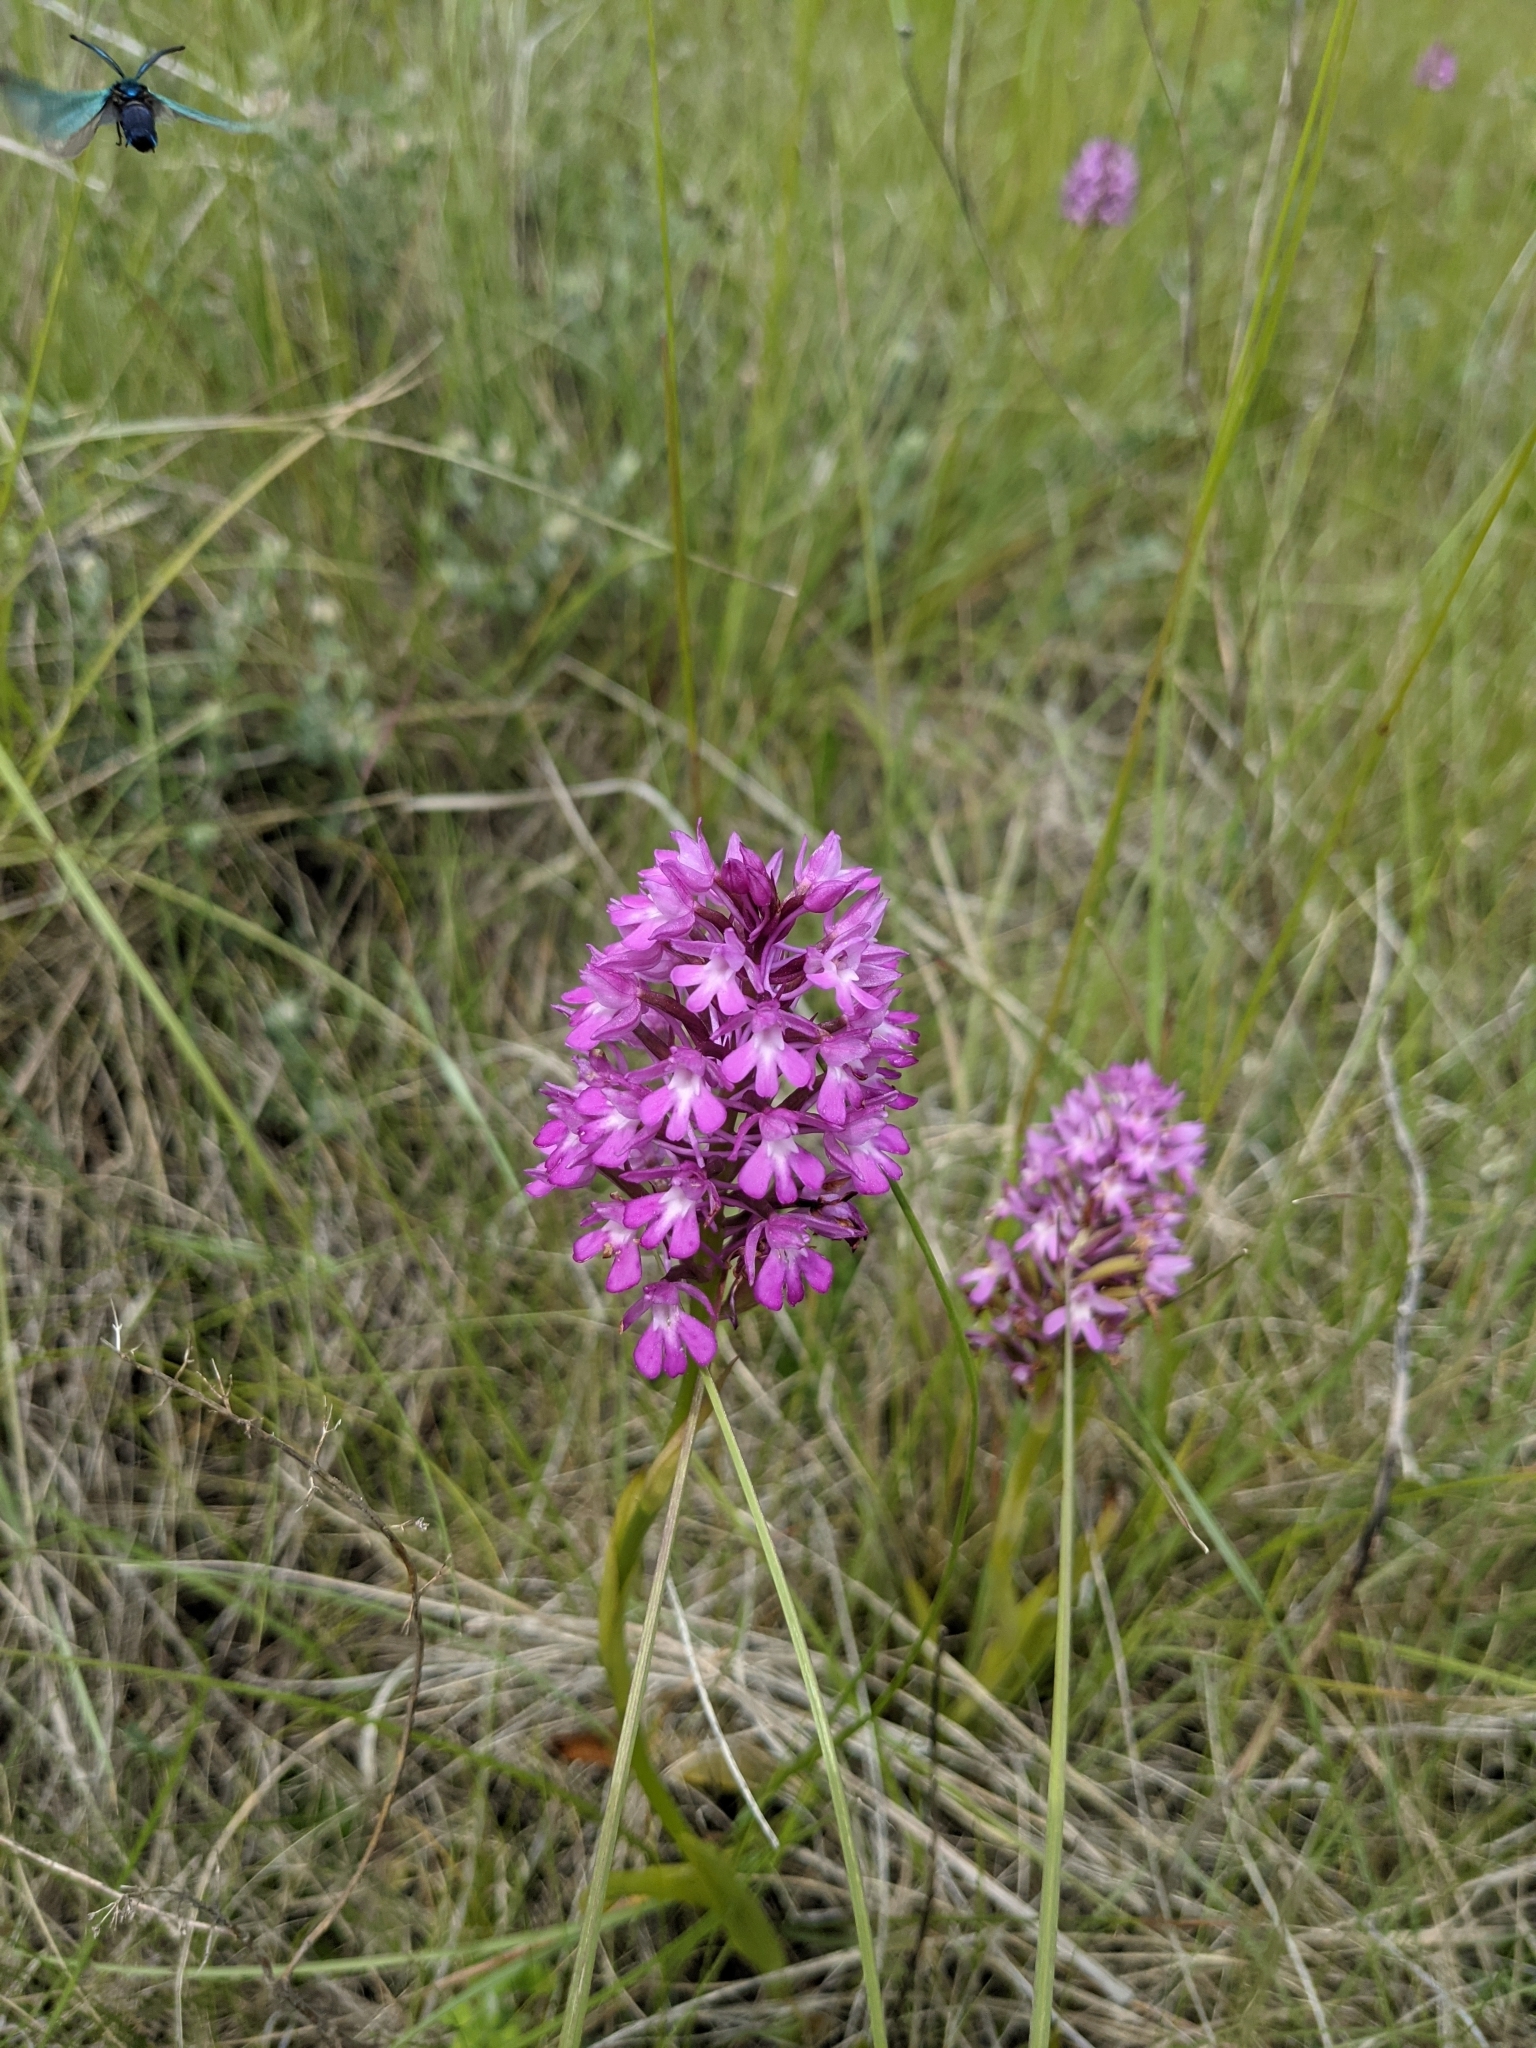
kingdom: Plantae
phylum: Tracheophyta
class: Liliopsida
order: Asparagales
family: Orchidaceae
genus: Anacamptis
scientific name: Anacamptis pyramidalis
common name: Pyramidal orchid
